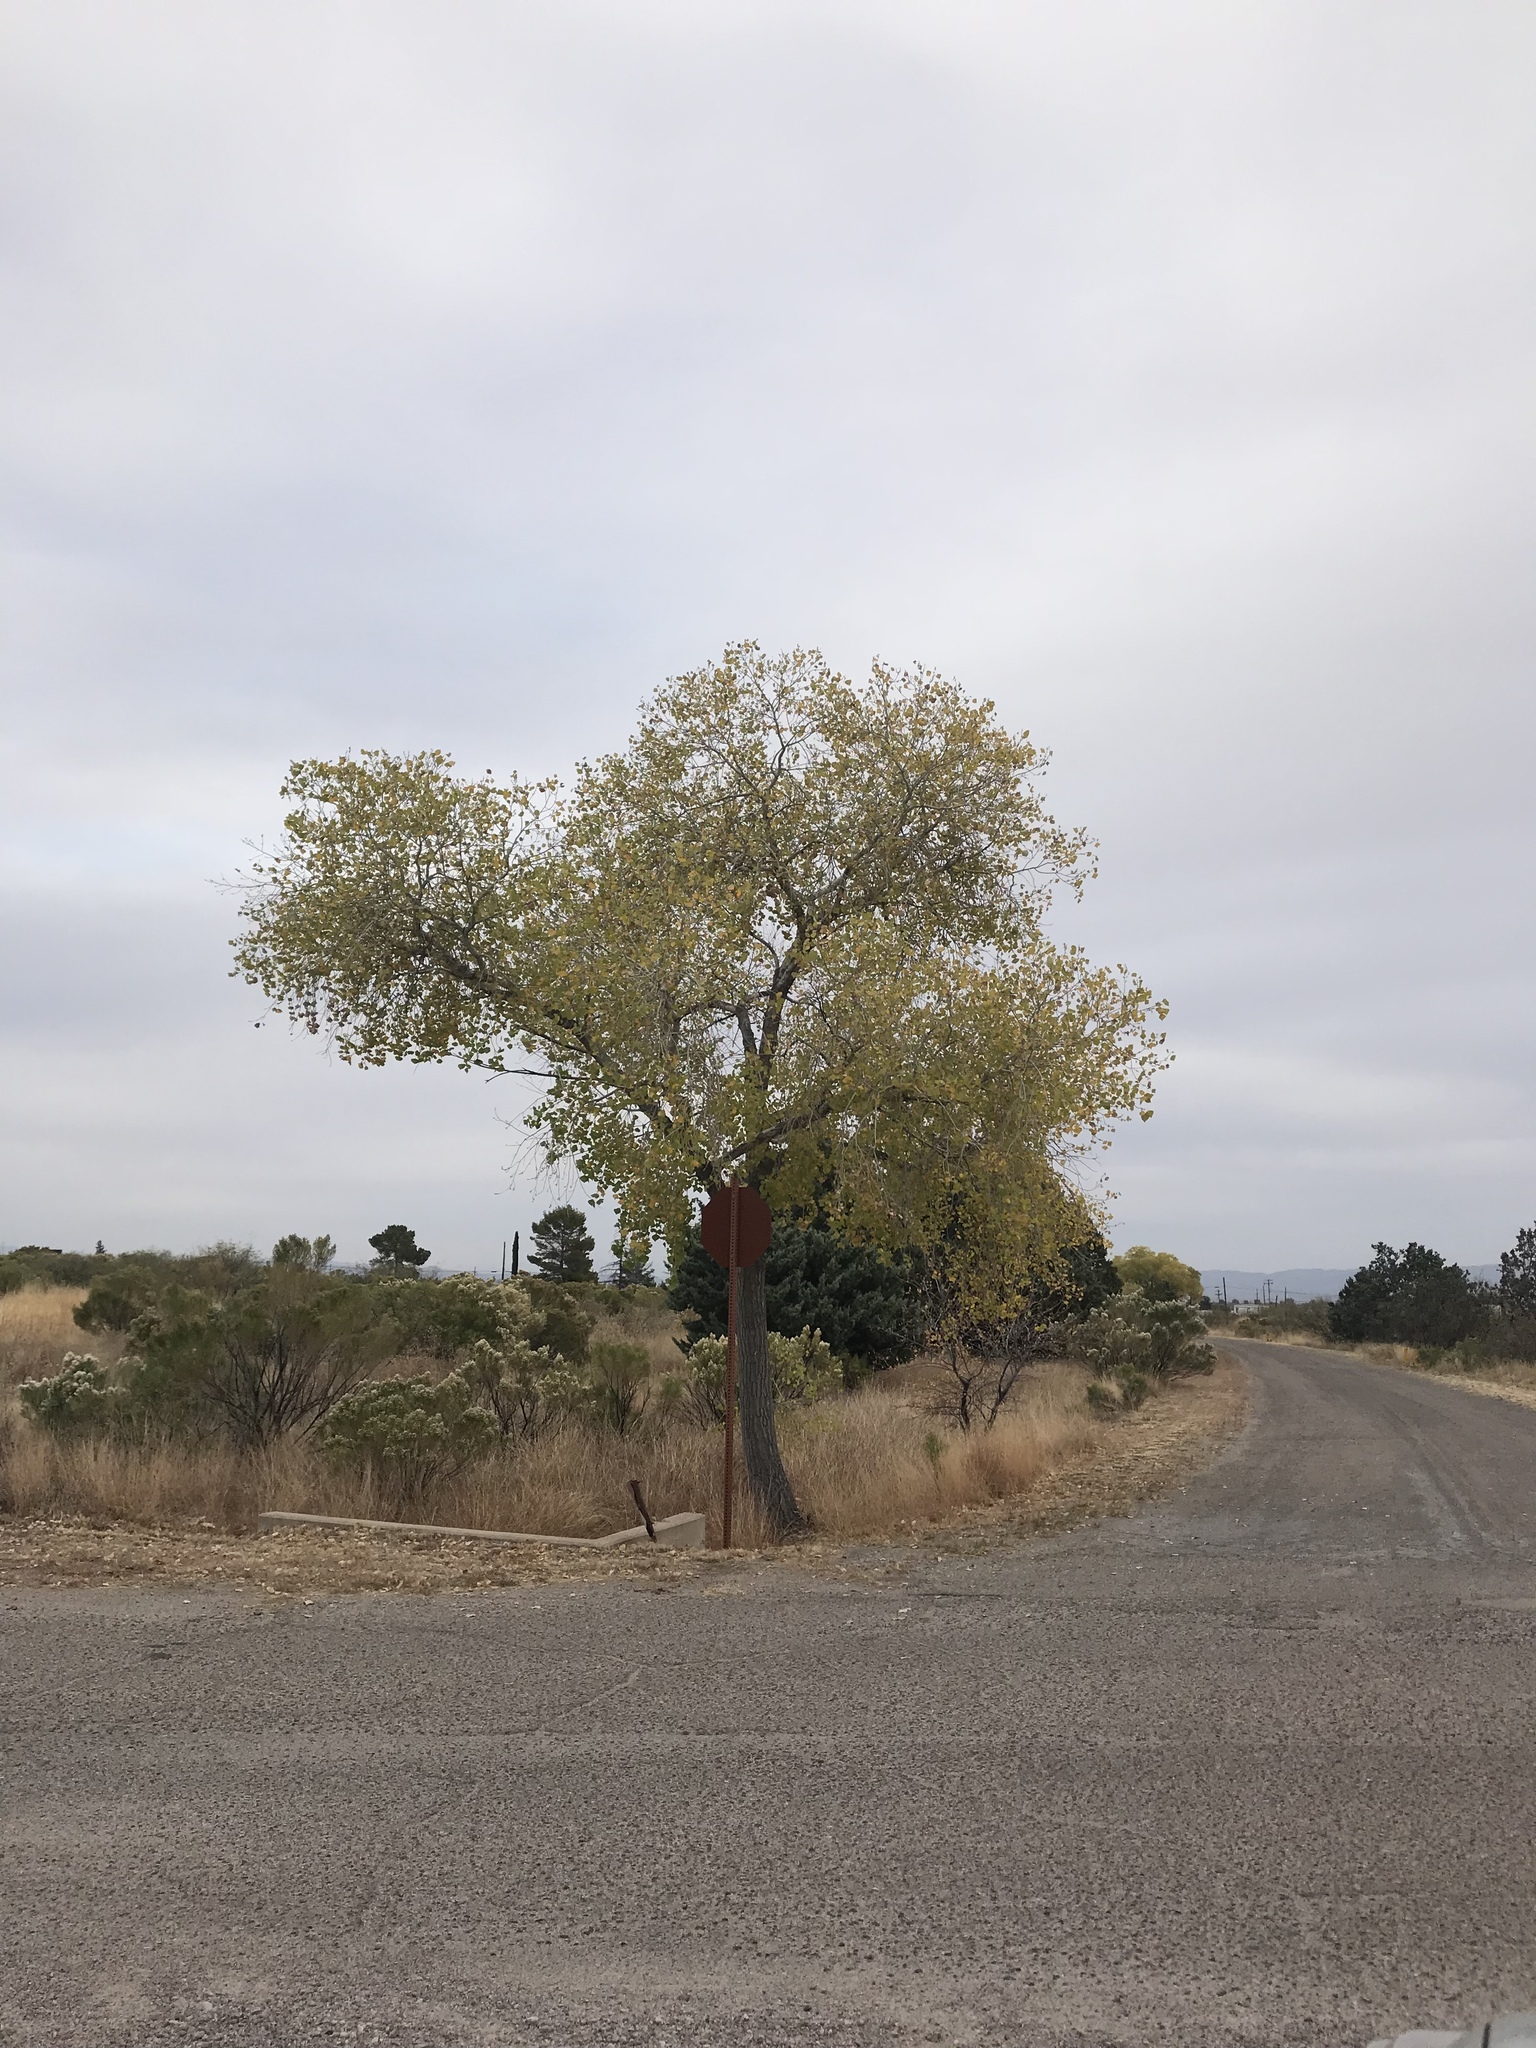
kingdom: Plantae
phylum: Tracheophyta
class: Magnoliopsida
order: Malpighiales
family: Salicaceae
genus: Populus
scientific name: Populus fremontii
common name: Fremont's cottonwood
